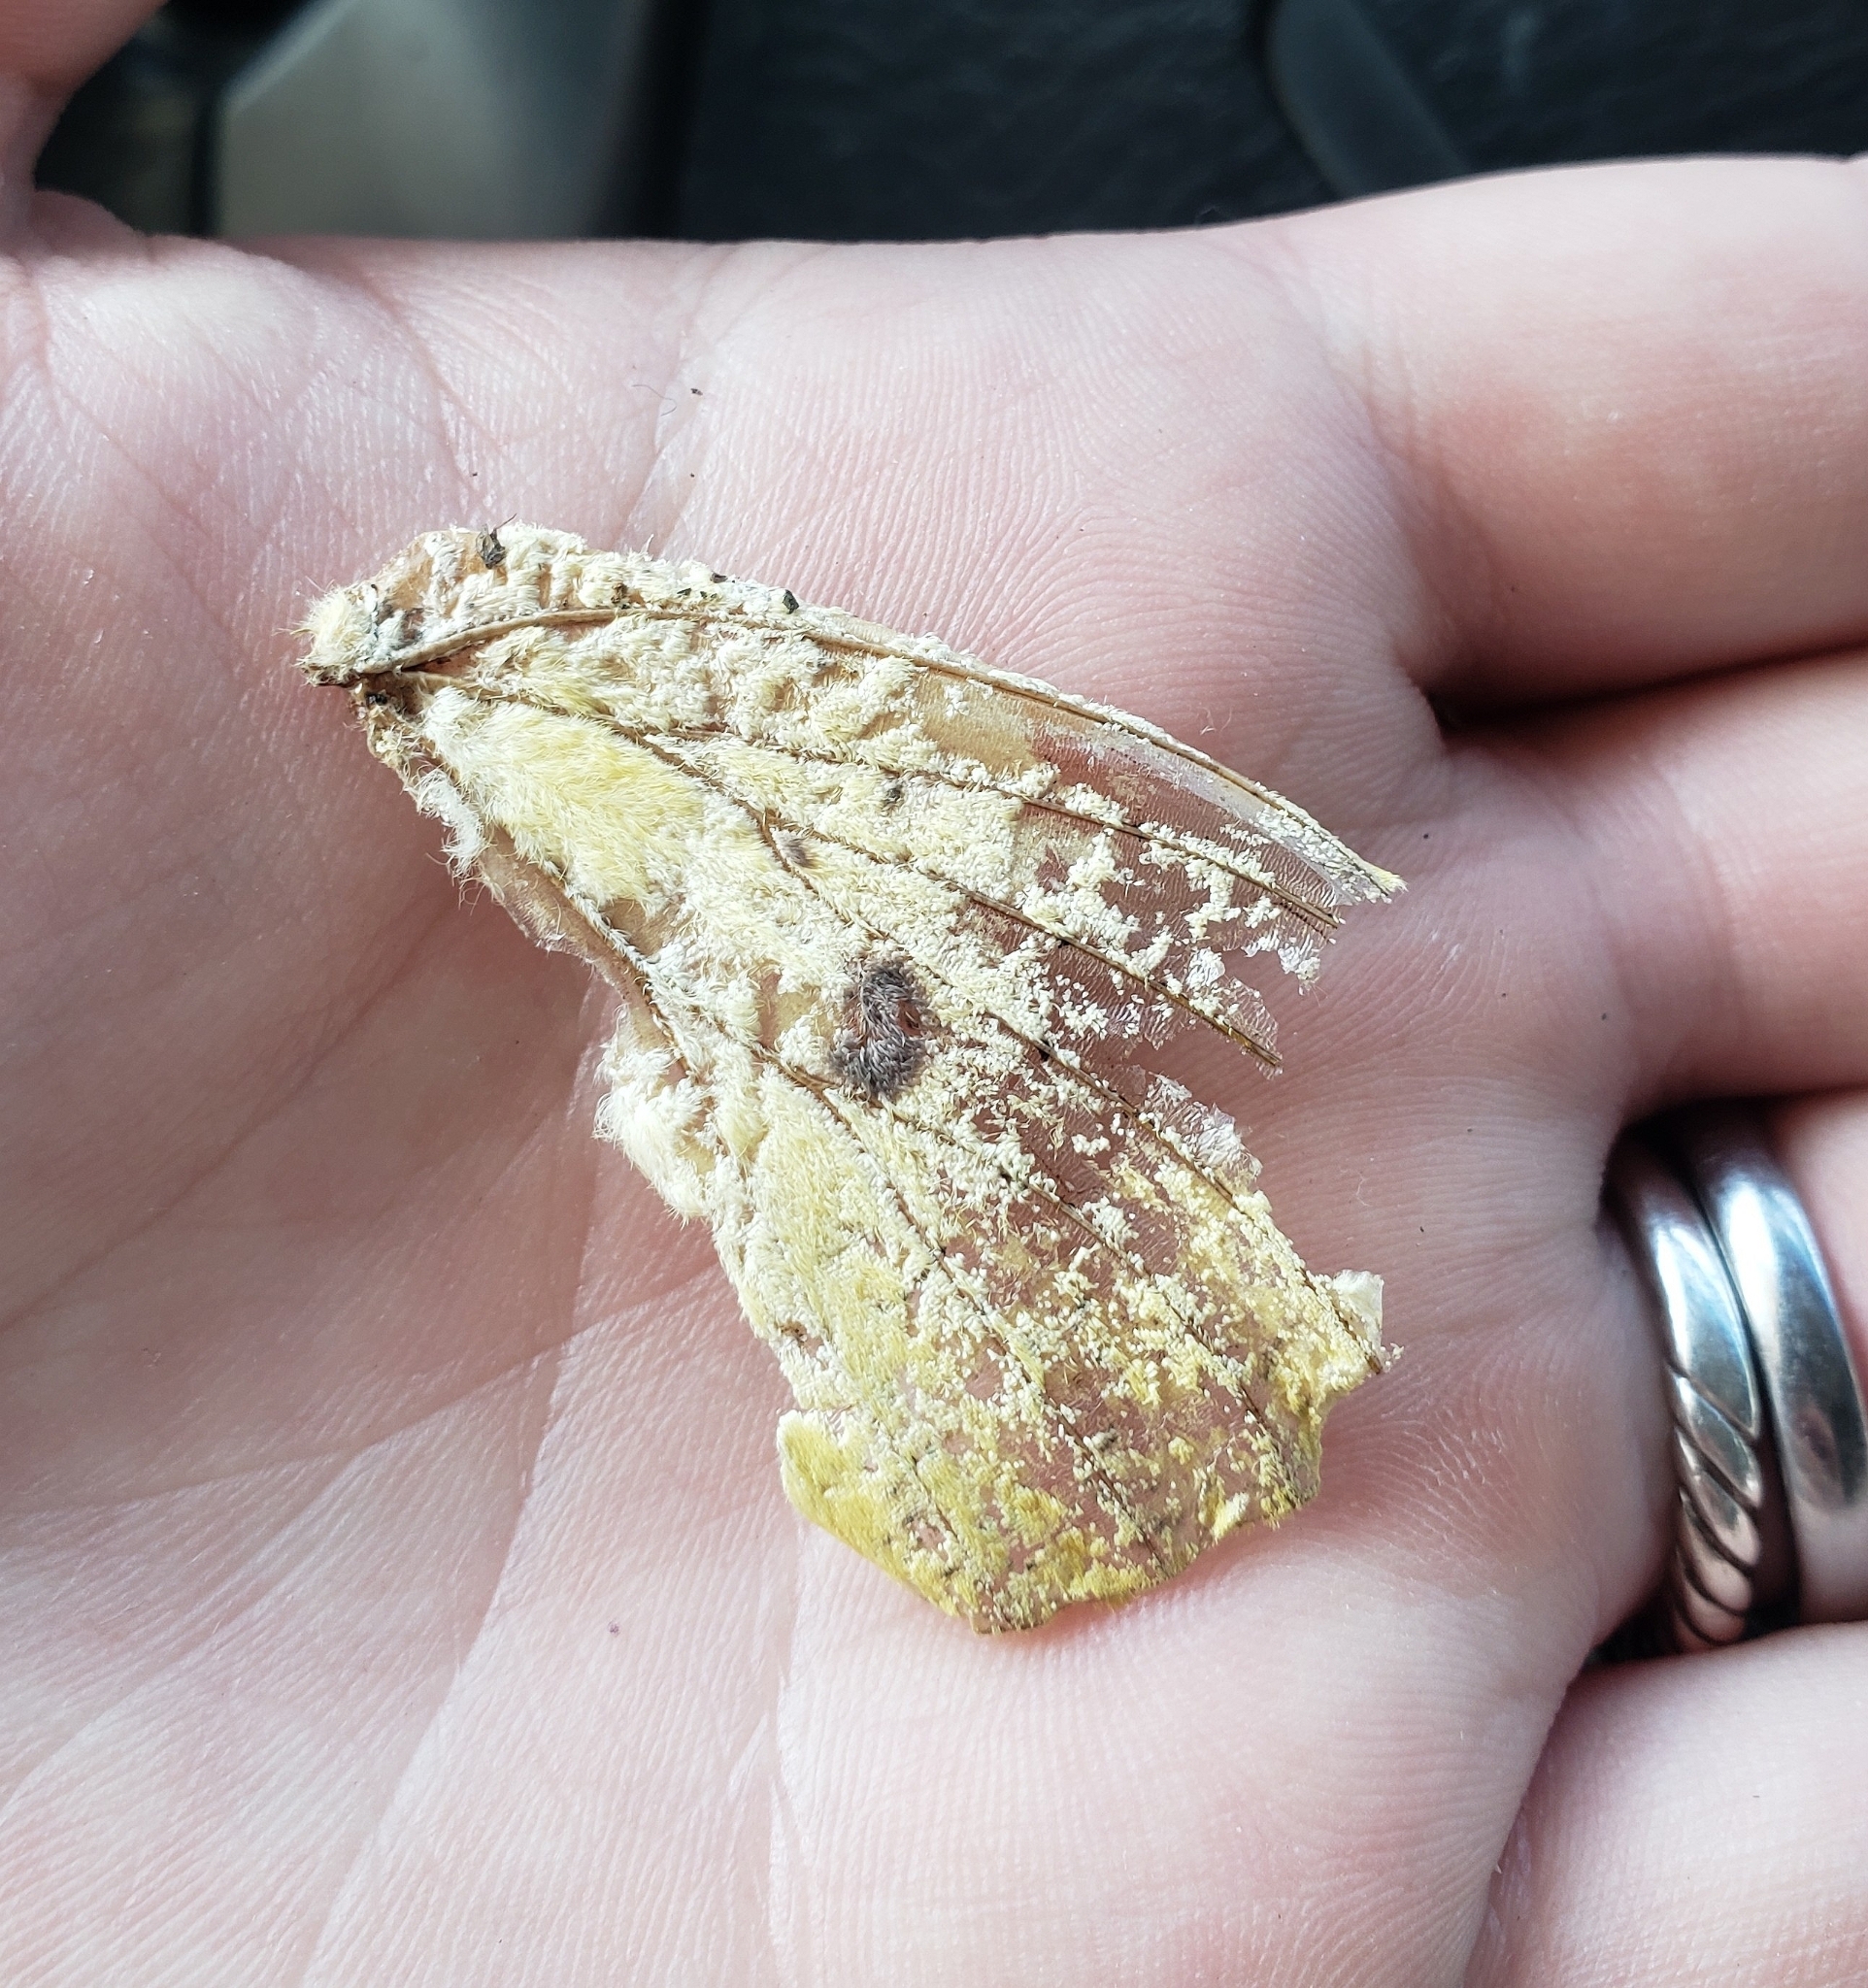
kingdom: Animalia
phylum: Arthropoda
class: Insecta
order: Lepidoptera
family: Saturniidae
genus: Eacles
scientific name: Eacles imperialis
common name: Imperial moth
